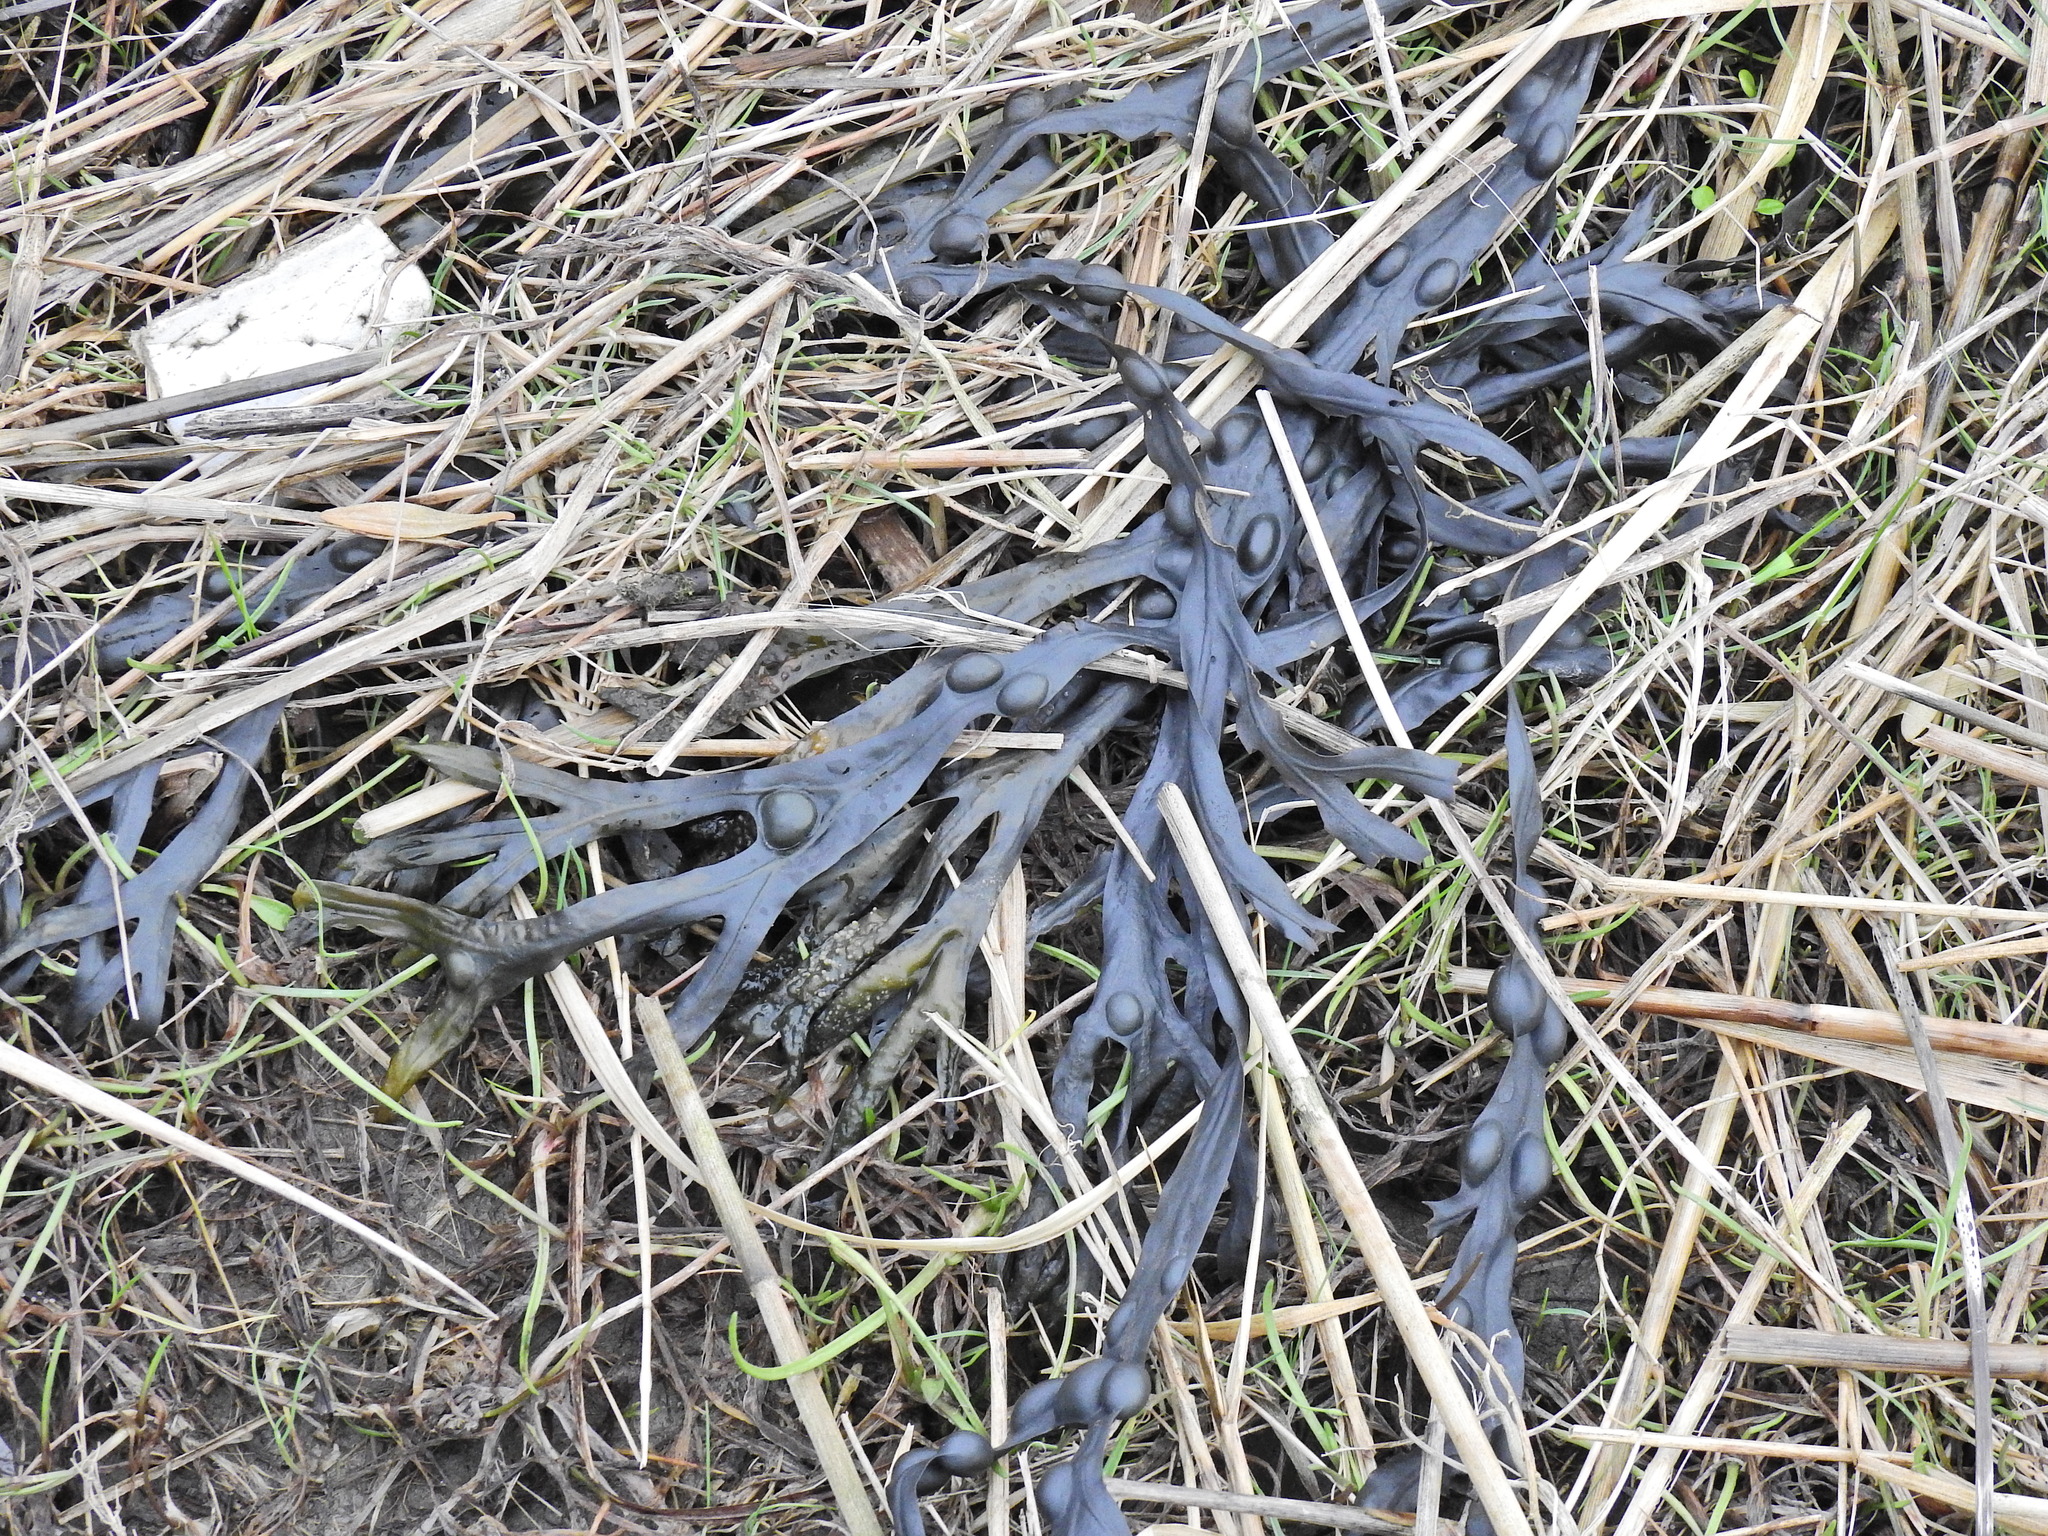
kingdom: Chromista
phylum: Ochrophyta
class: Phaeophyceae
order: Fucales
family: Fucaceae
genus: Fucus
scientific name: Fucus vesiculosus
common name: Bladder wrack
